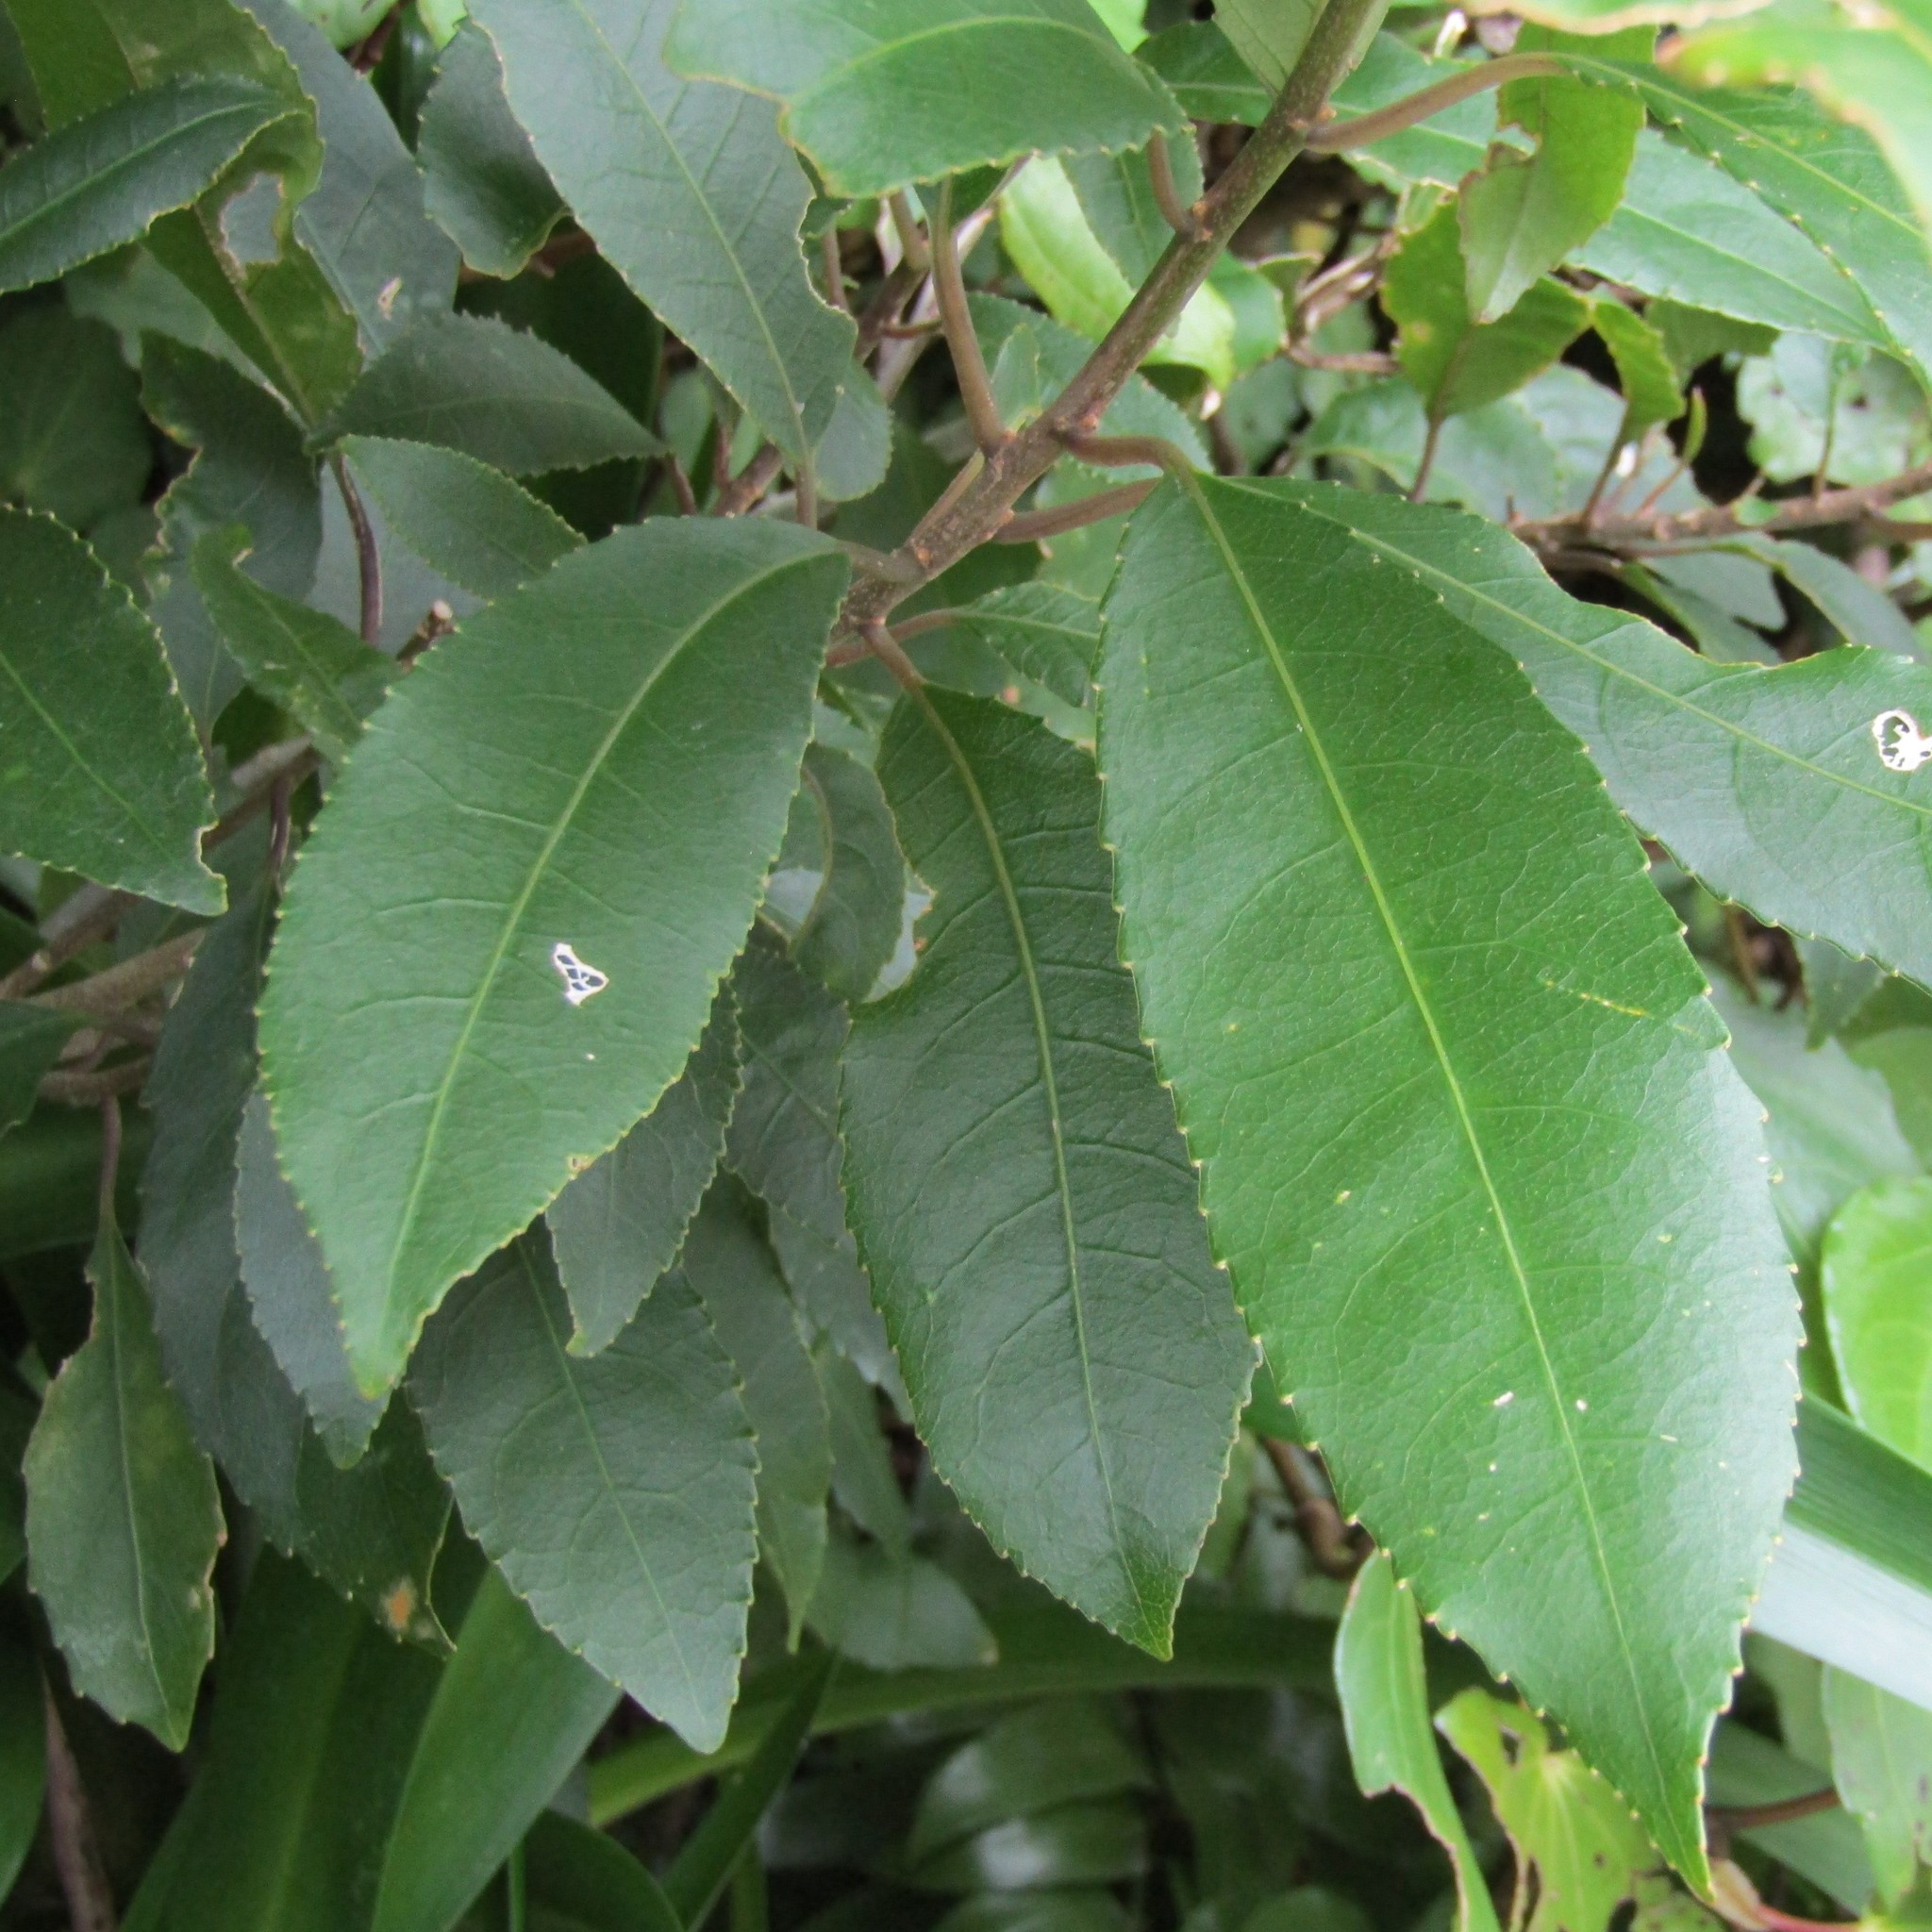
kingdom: Plantae
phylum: Tracheophyta
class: Magnoliopsida
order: Malpighiales
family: Violaceae
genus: Melicytus
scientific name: Melicytus ramiflorus
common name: Mahoe
